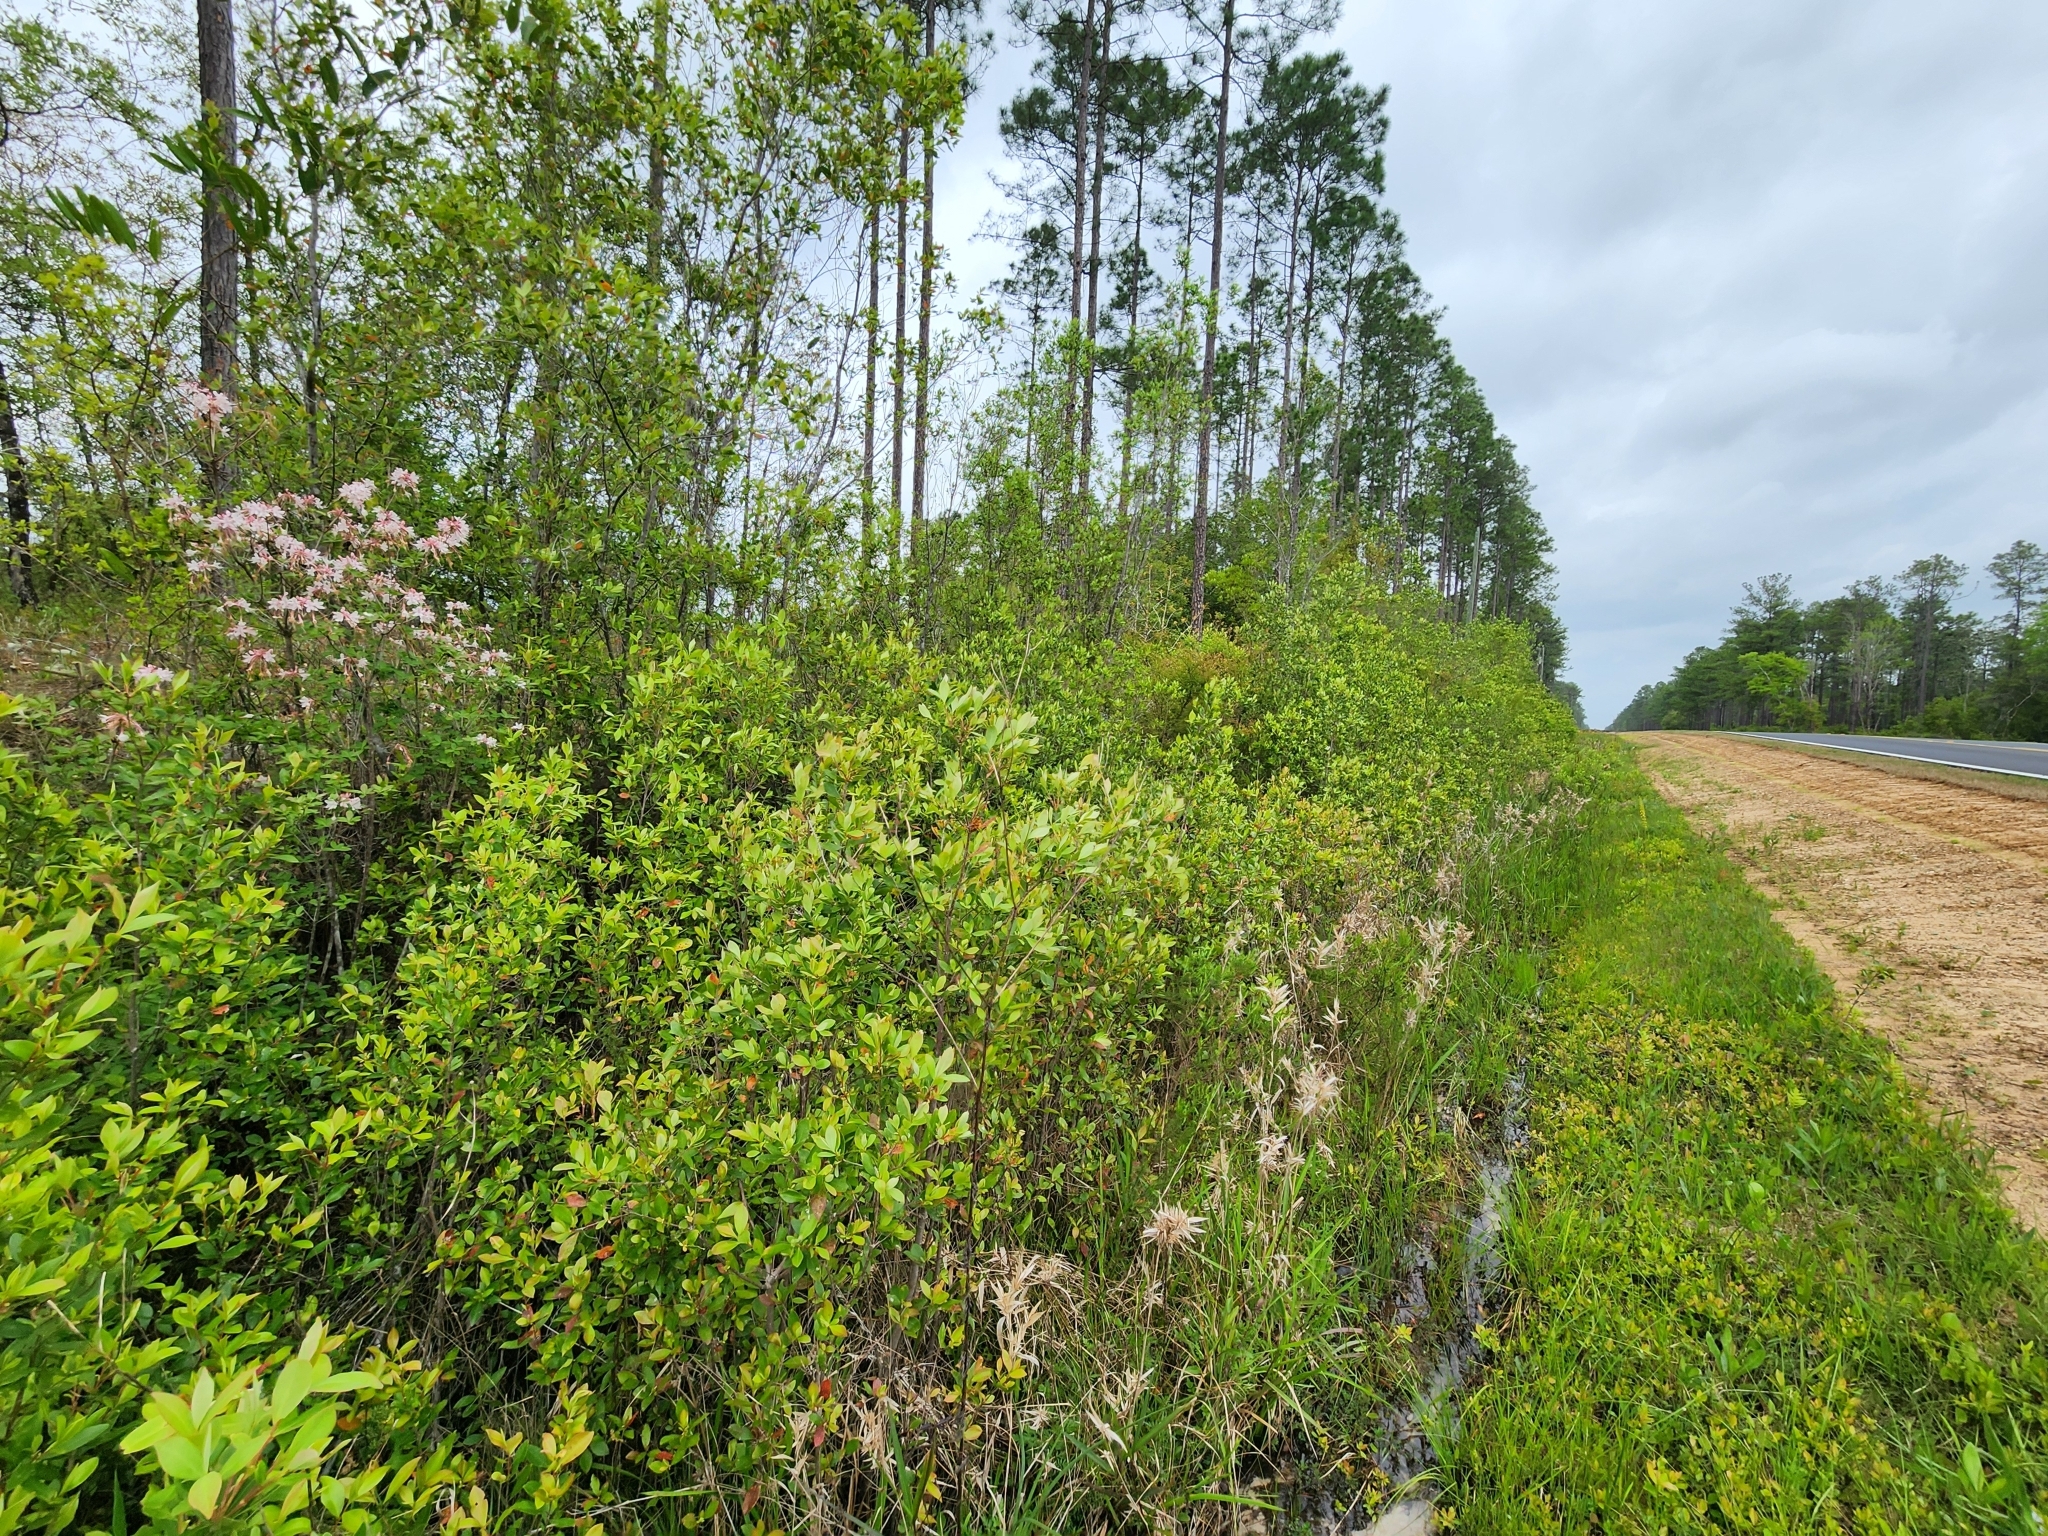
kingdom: Plantae
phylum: Tracheophyta
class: Magnoliopsida
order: Ericales
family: Ericaceae
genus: Rhododendron
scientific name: Rhododendron canescens
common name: Mountain azalea
